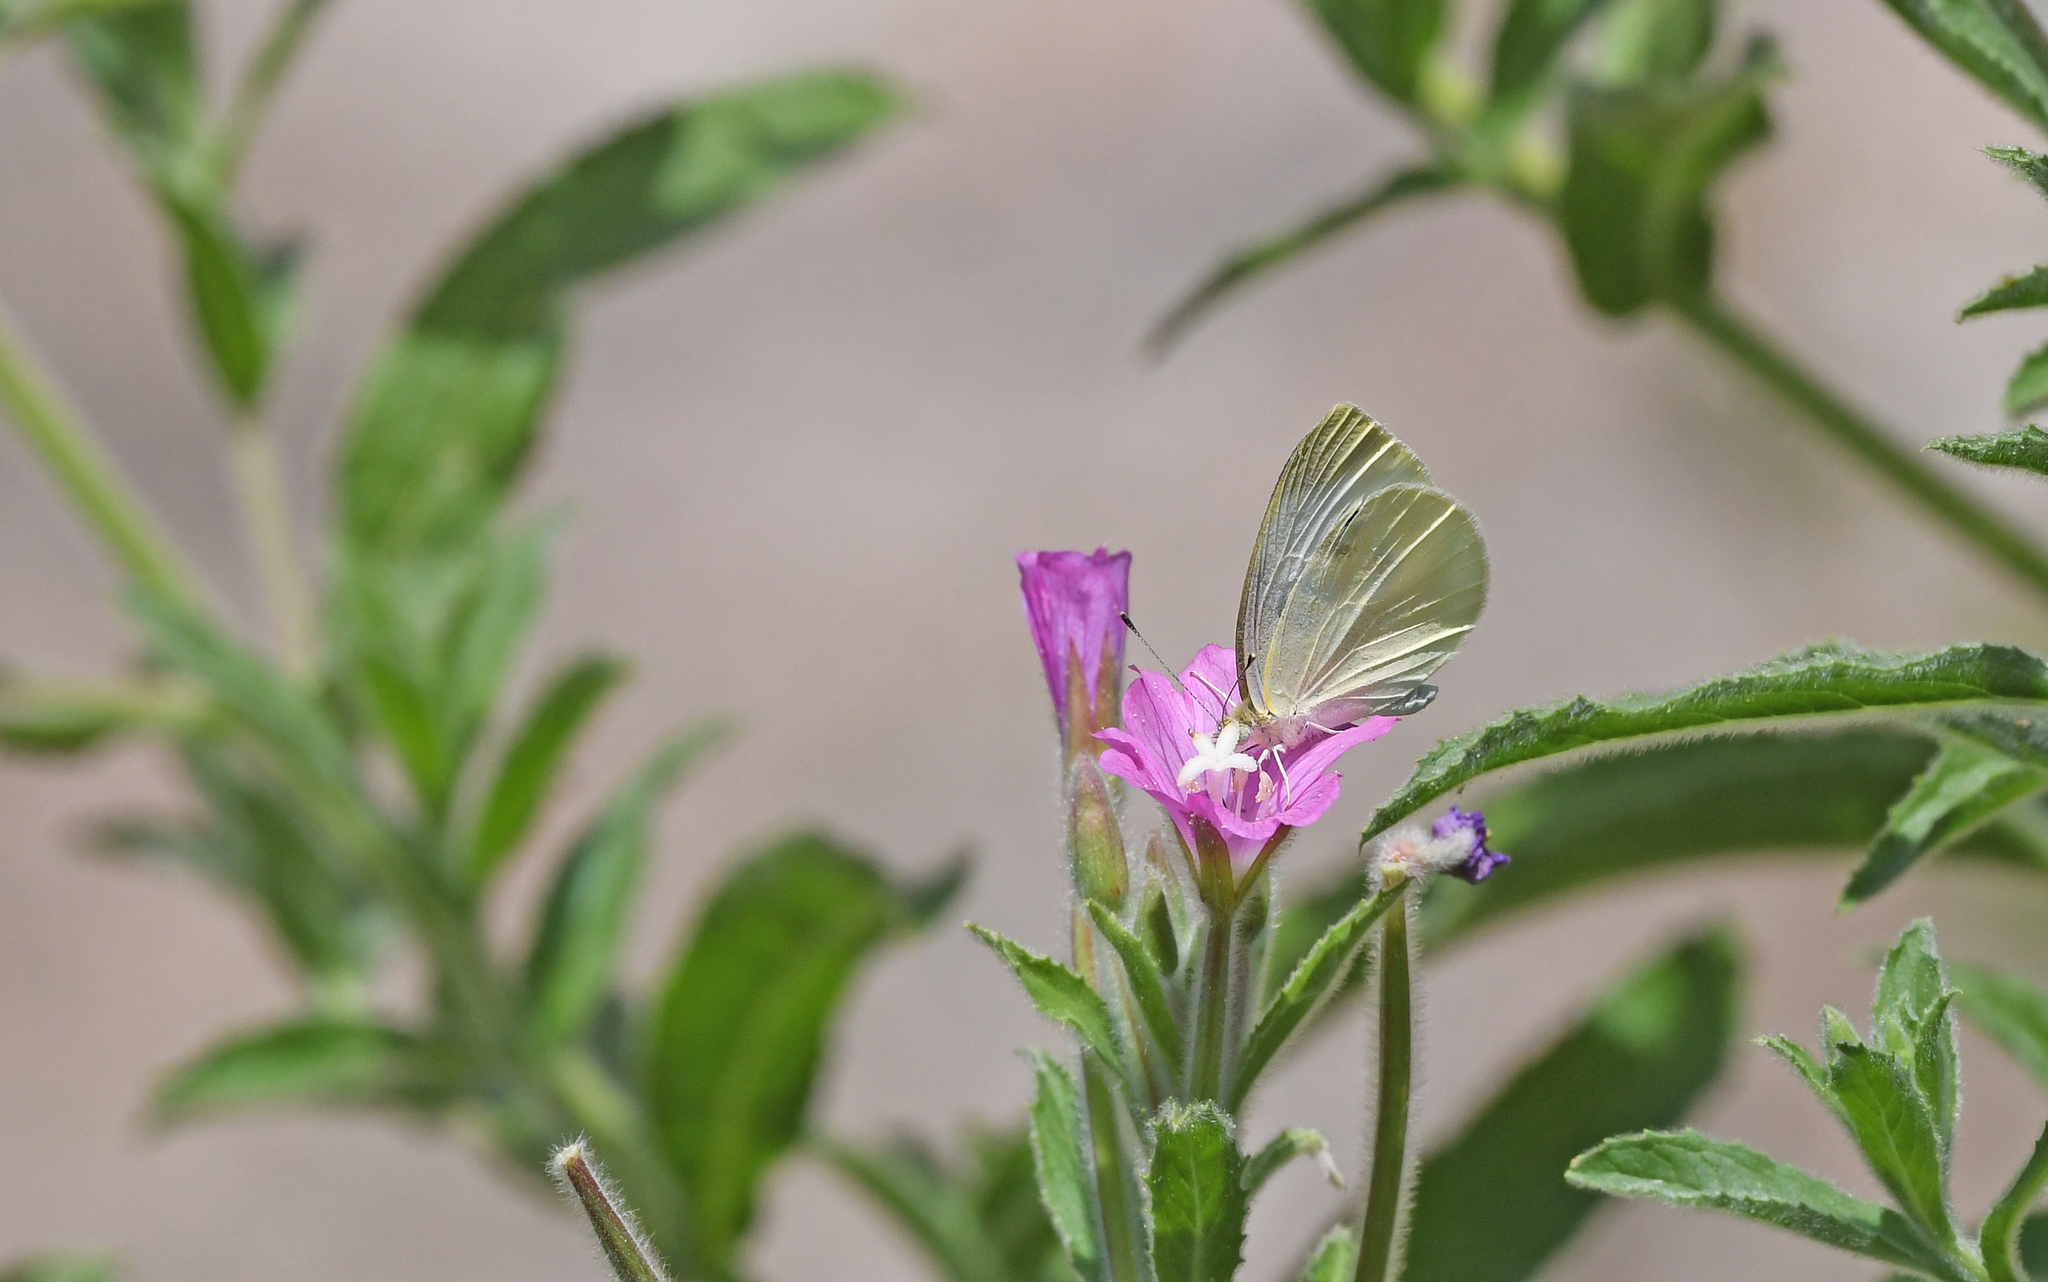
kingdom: Animalia
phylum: Arthropoda
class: Insecta
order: Lepidoptera
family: Pieridae
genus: Pieris
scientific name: Pieris brassicae
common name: Large white
